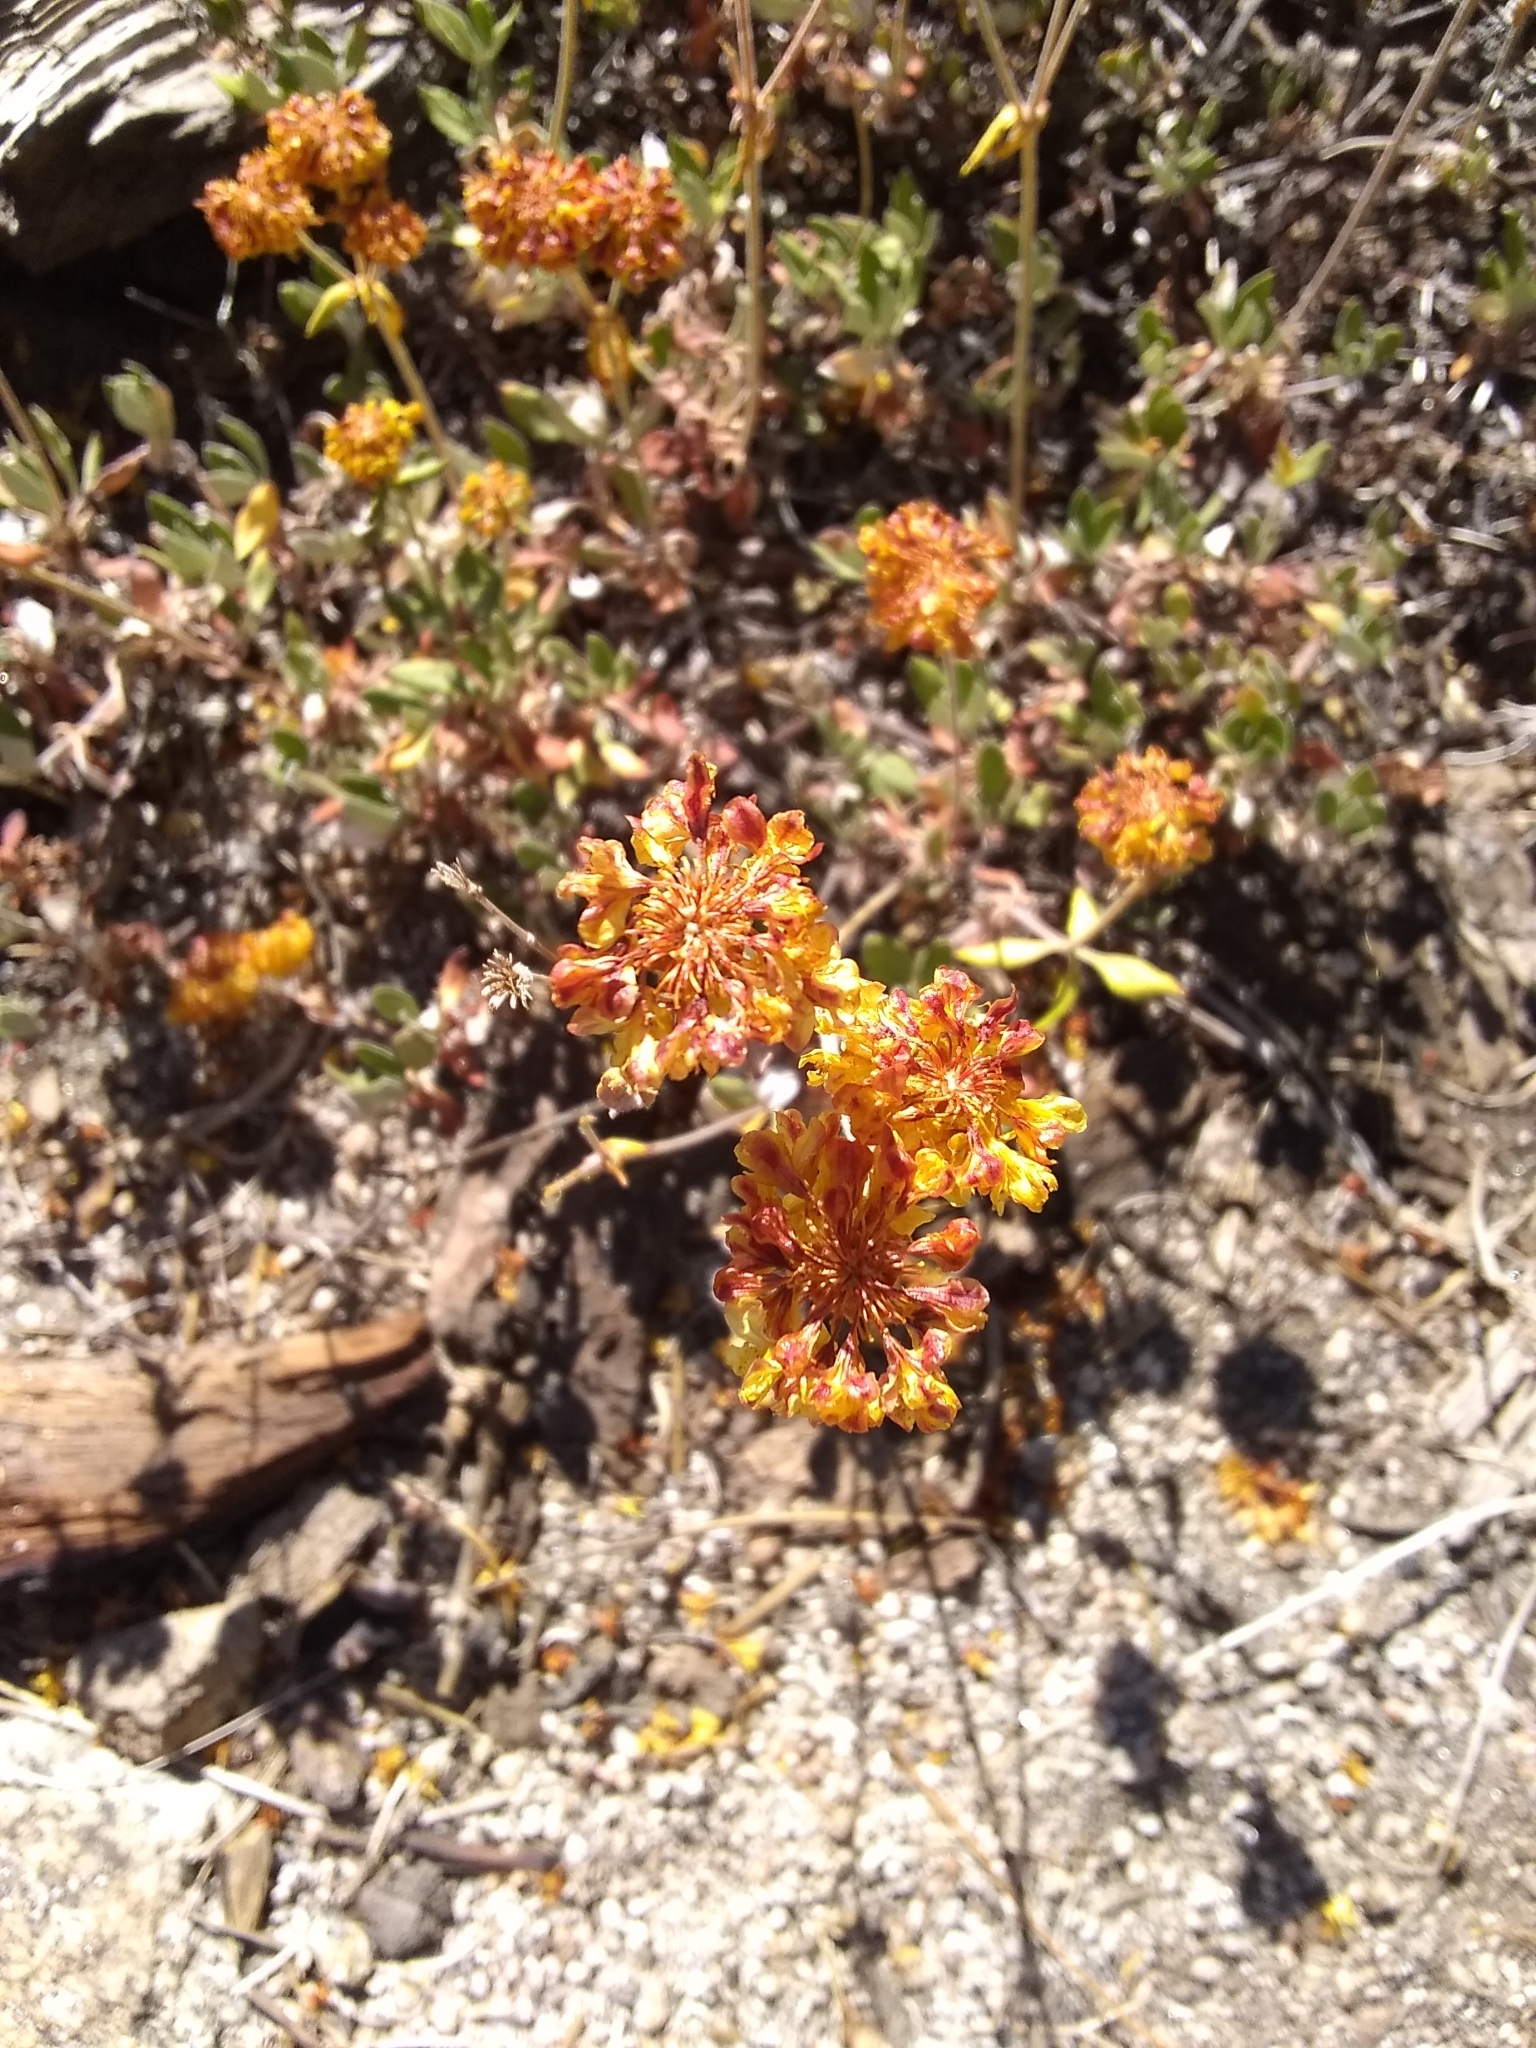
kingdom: Plantae
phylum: Tracheophyta
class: Magnoliopsida
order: Caryophyllales
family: Polygonaceae
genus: Eriogonum
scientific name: Eriogonum umbellatum
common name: Sulfur-buckwheat
